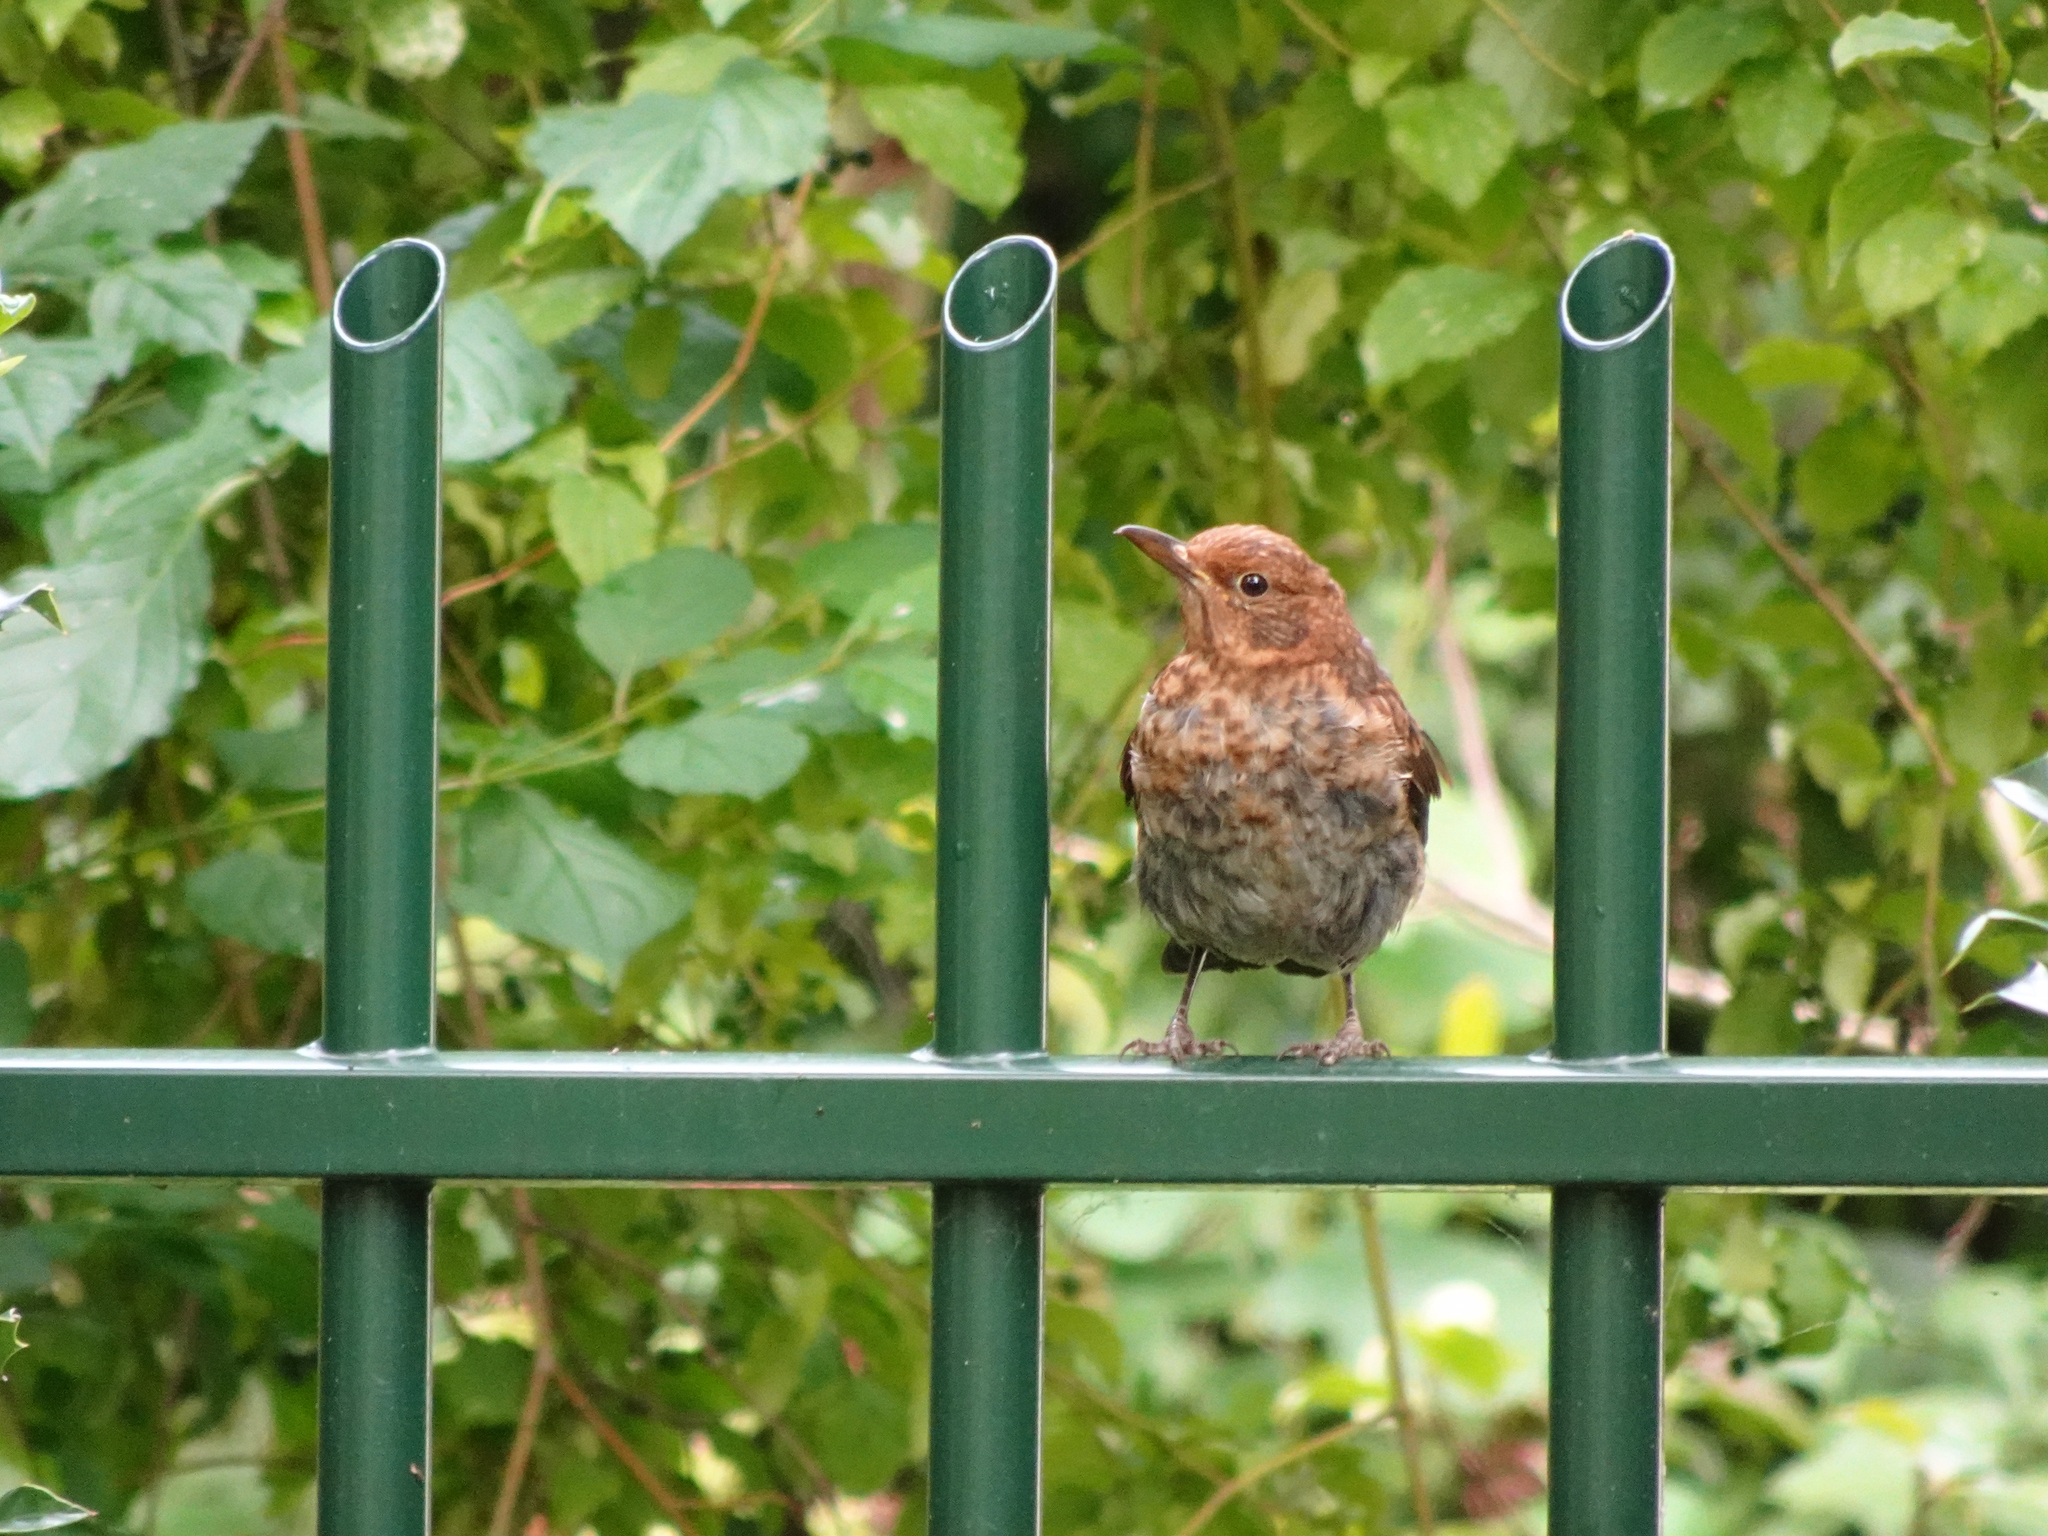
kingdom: Animalia
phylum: Chordata
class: Aves
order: Passeriformes
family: Turdidae
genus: Turdus
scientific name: Turdus merula
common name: Common blackbird
